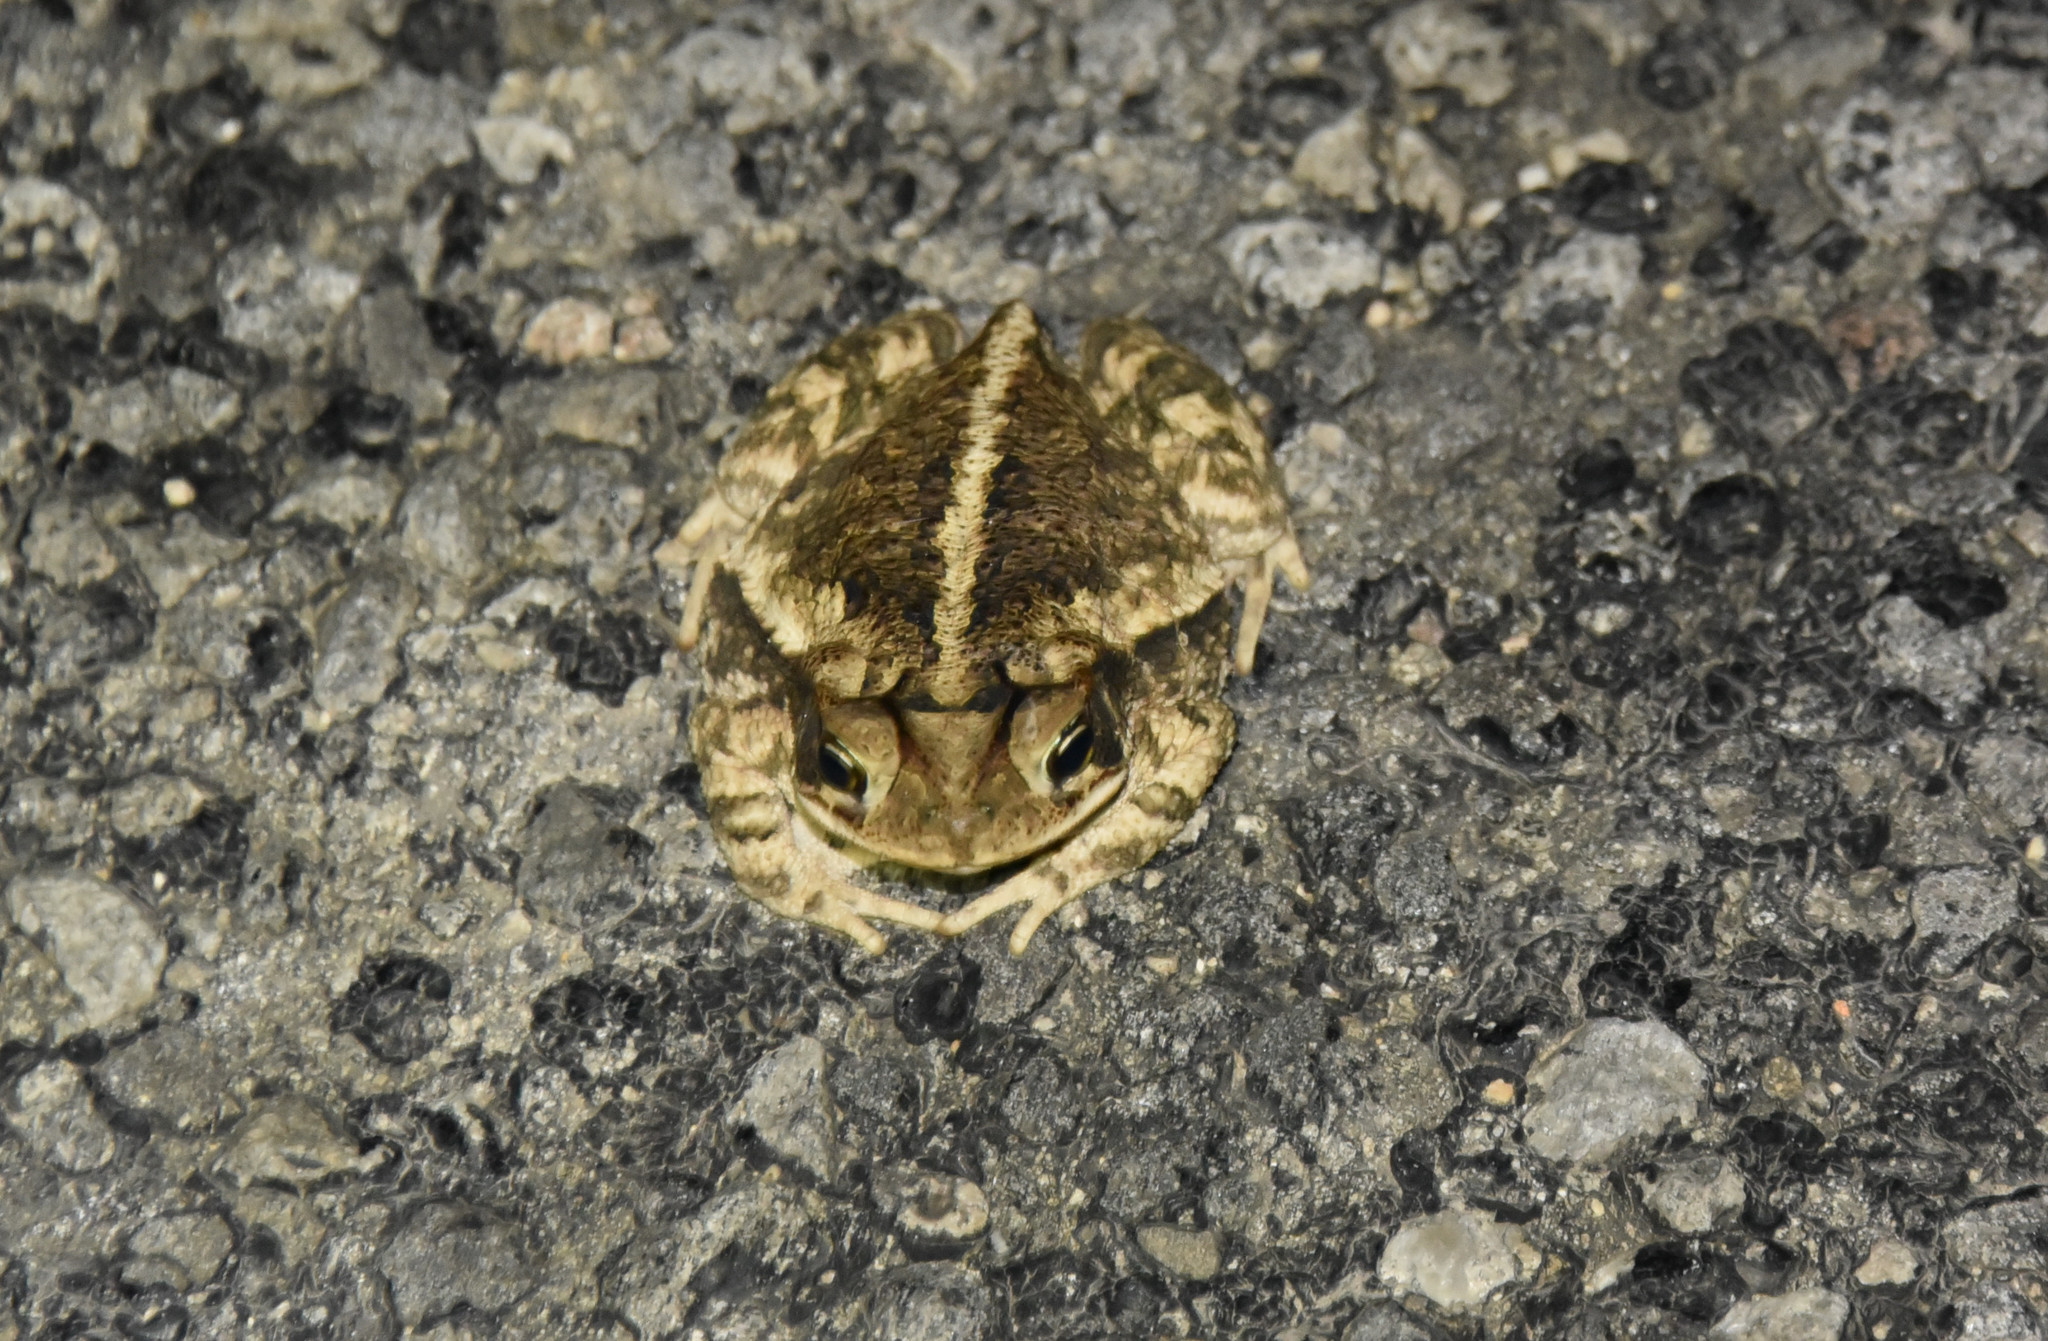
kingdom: Animalia
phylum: Chordata
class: Amphibia
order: Anura
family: Bufonidae
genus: Incilius
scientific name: Incilius nebulifer
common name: Gulf coast toad
